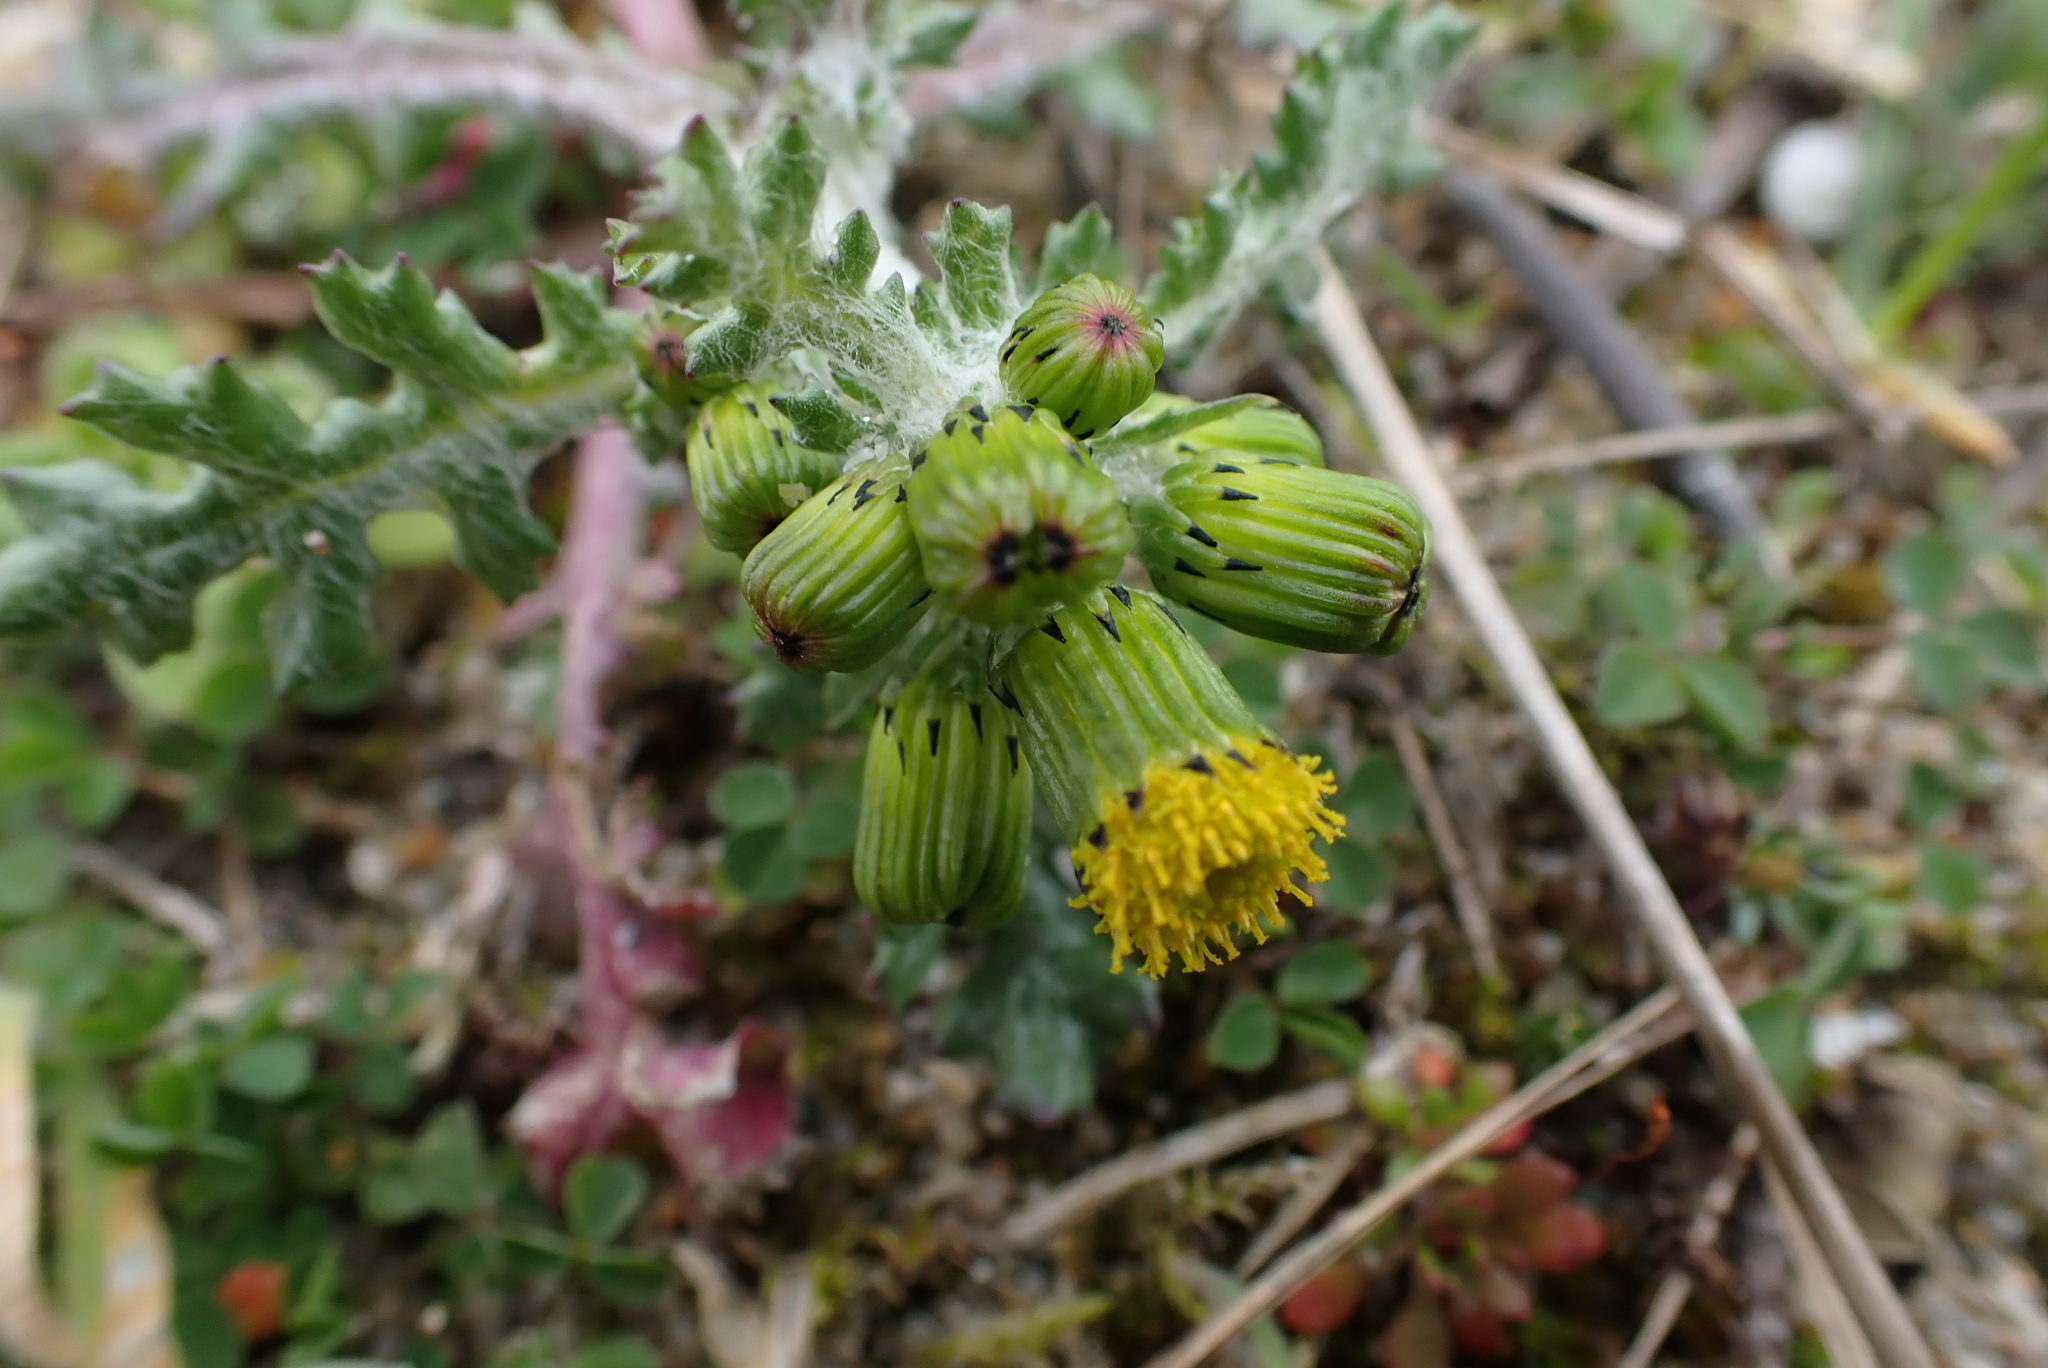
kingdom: Plantae
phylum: Tracheophyta
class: Magnoliopsida
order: Asterales
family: Asteraceae
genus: Senecio
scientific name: Senecio vulgaris
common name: Old-man-in-the-spring
